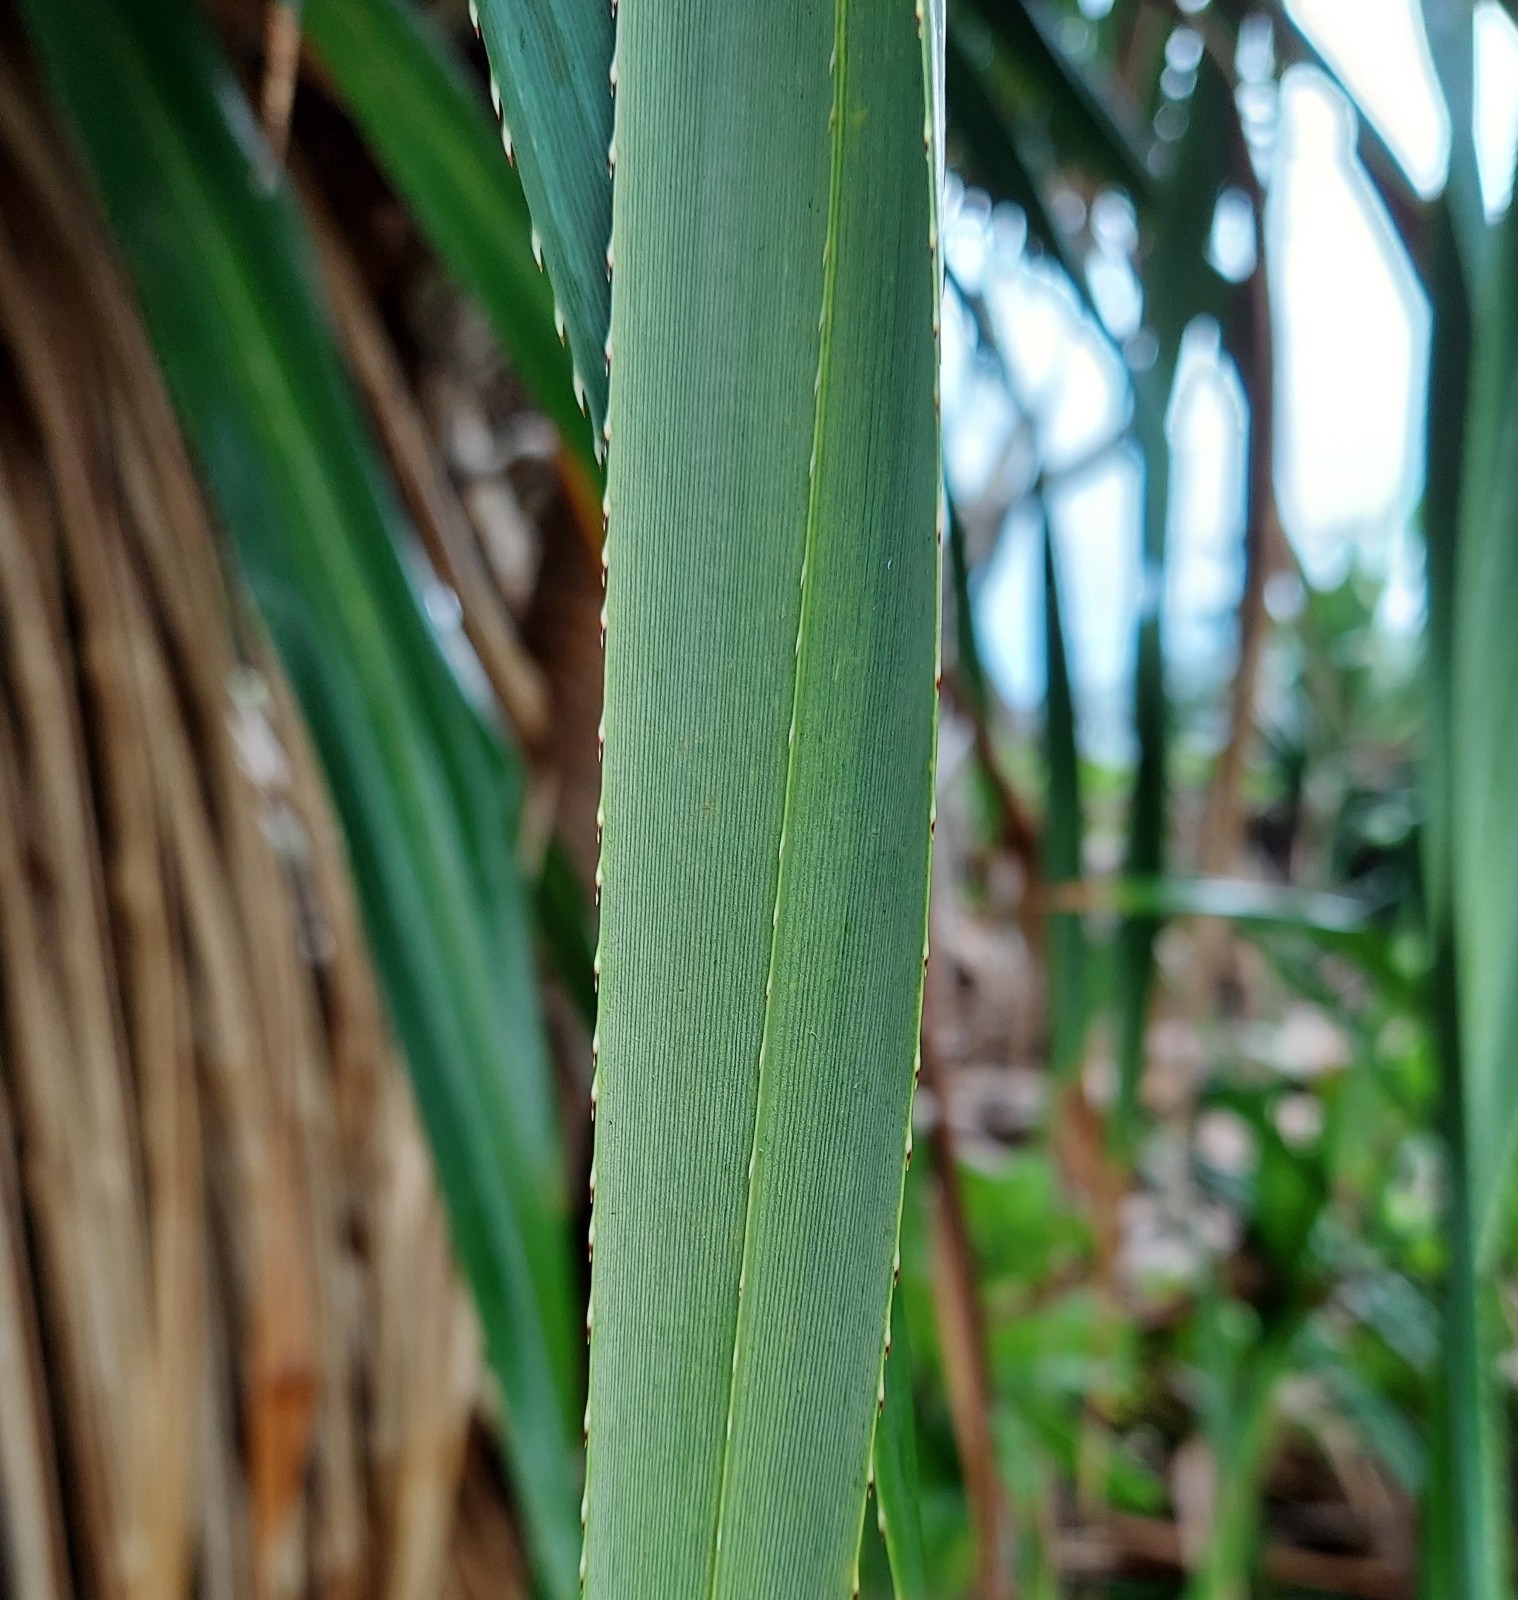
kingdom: Plantae
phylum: Tracheophyta
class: Liliopsida
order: Pandanales
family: Pandanaceae
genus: Pandanus
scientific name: Pandanus tectorius
